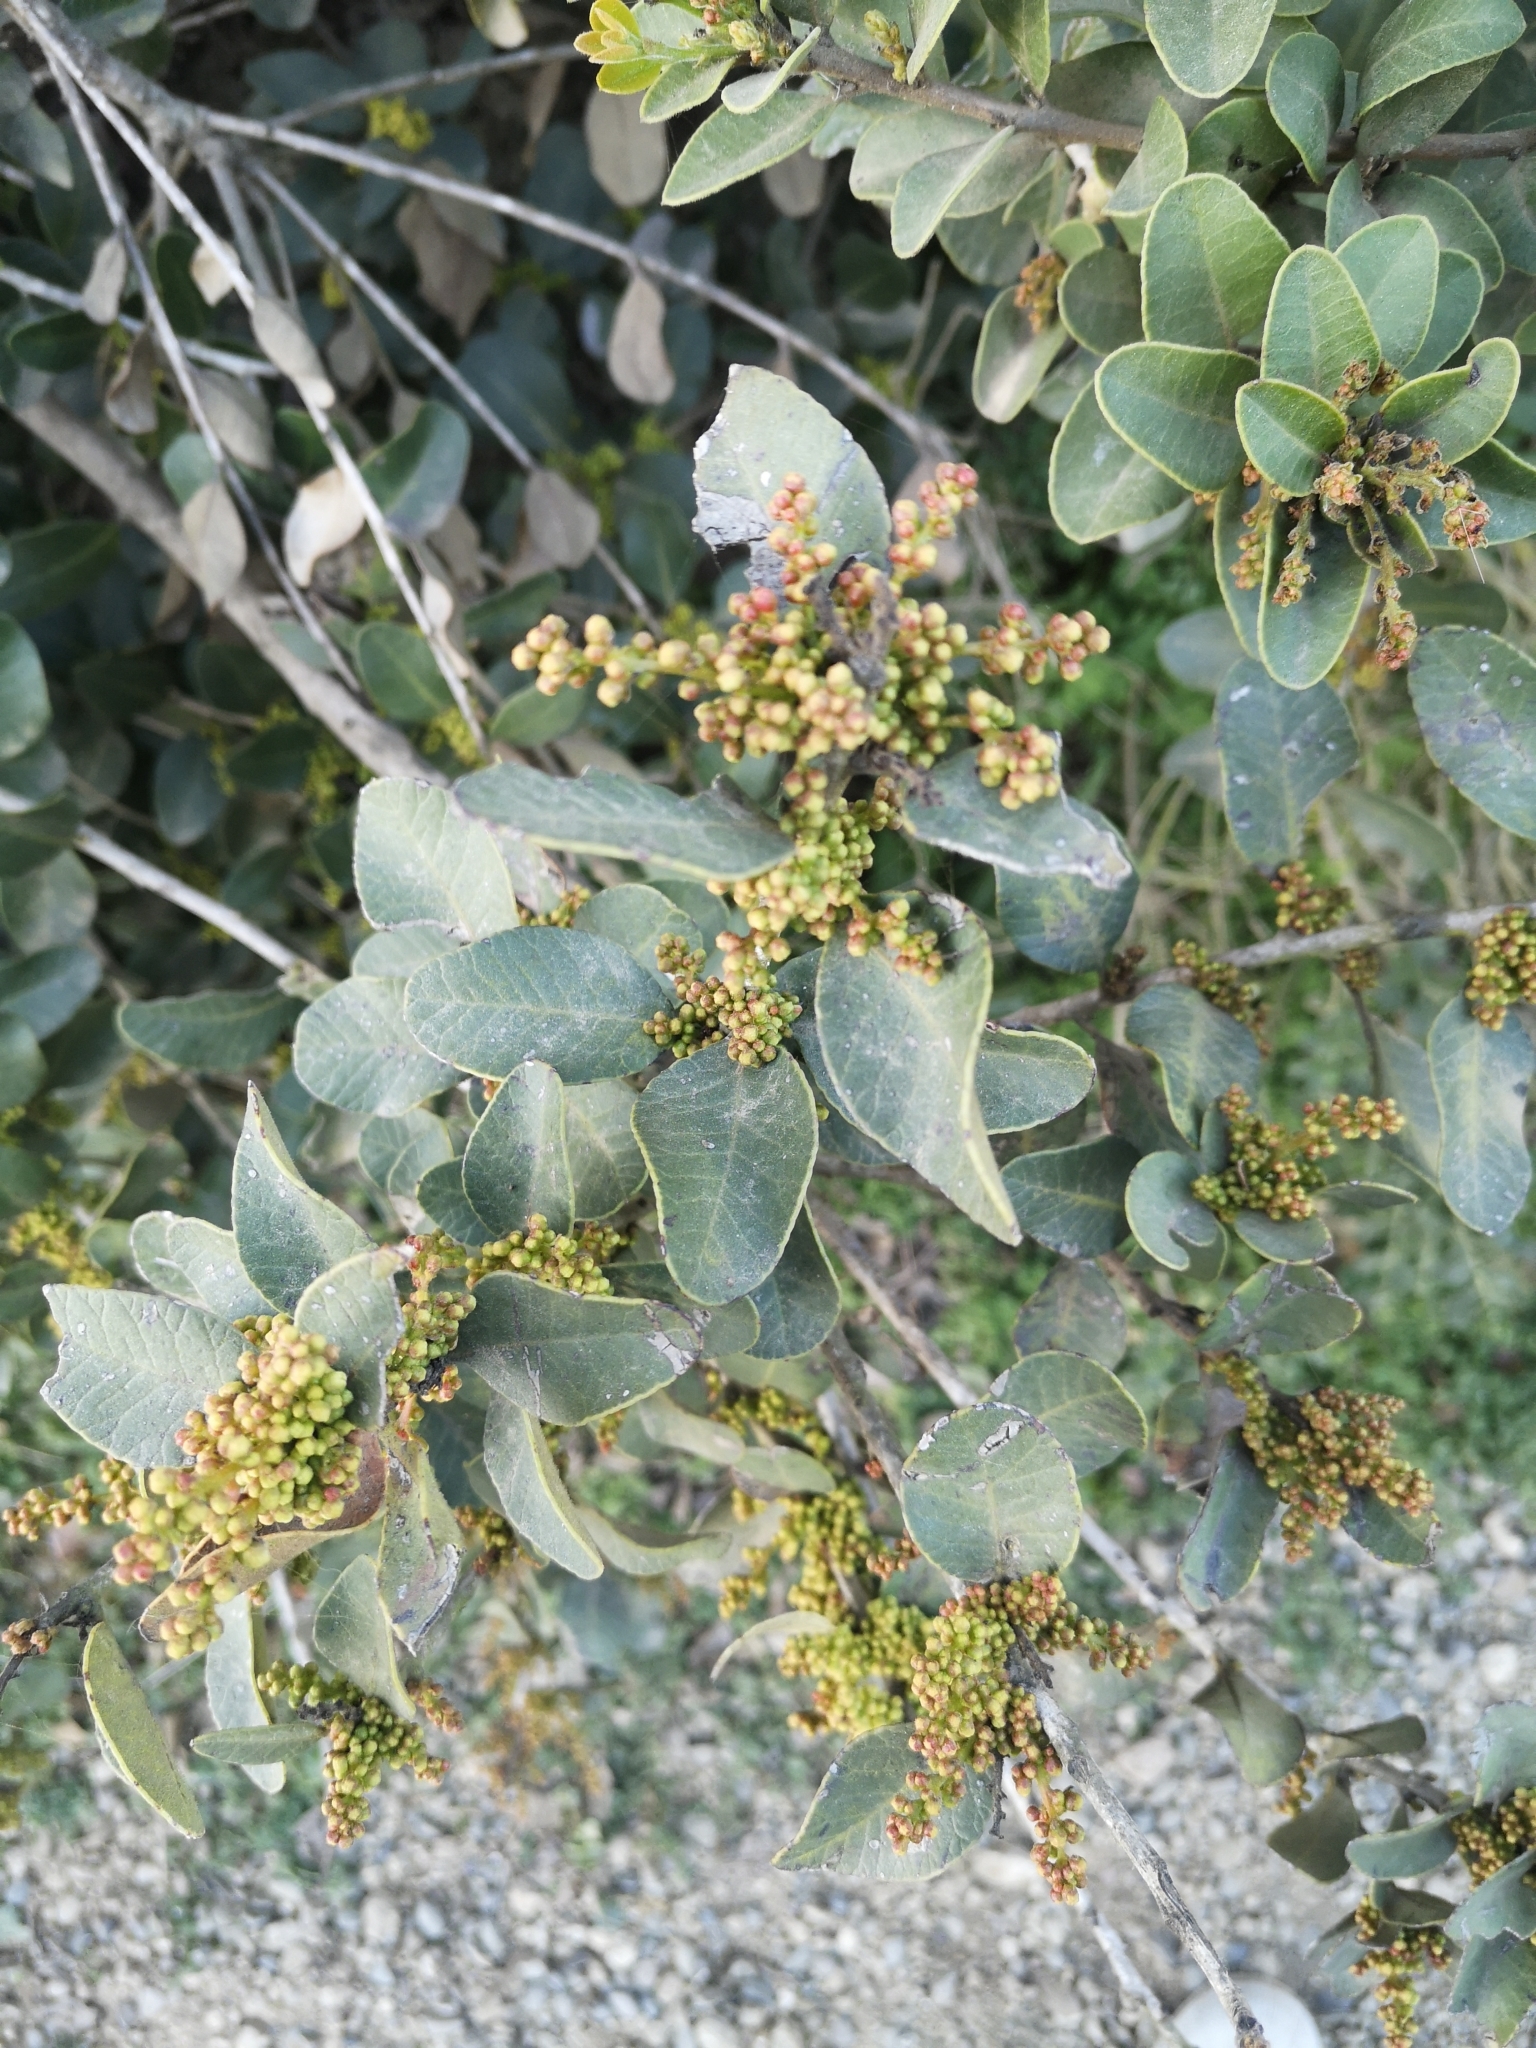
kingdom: Plantae
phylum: Tracheophyta
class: Magnoliopsida
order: Sapindales
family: Anacardiaceae
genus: Lithraea
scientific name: Lithraea caustica
